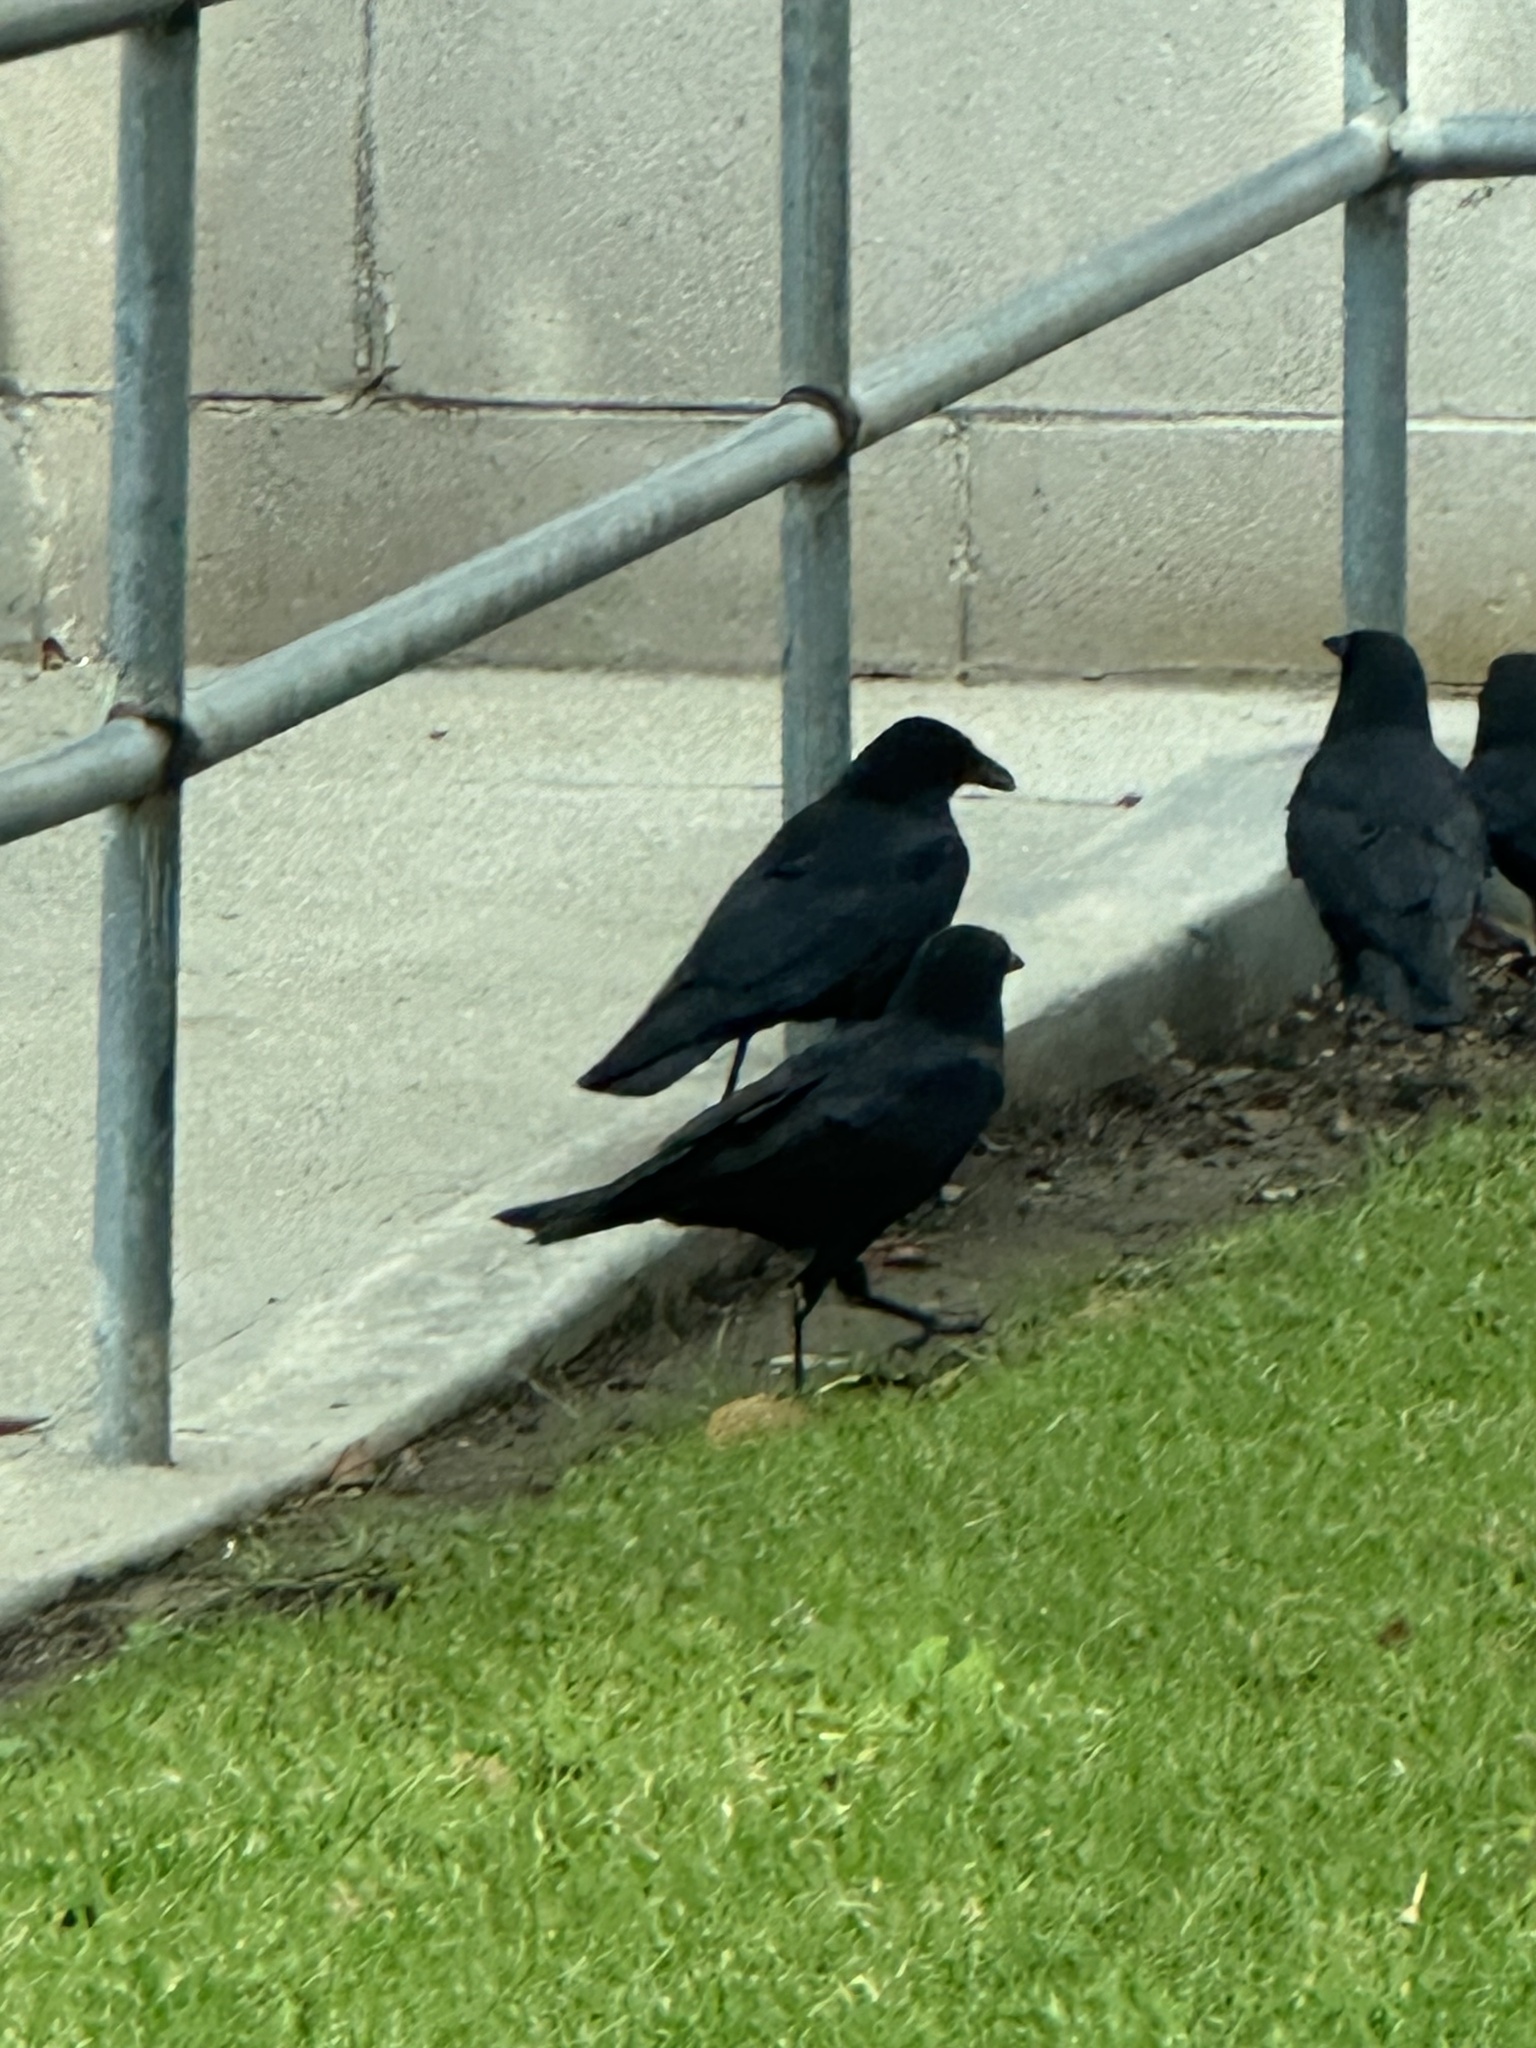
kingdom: Animalia
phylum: Chordata
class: Aves
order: Passeriformes
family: Corvidae
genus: Corvus
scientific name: Corvus brachyrhynchos
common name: American crow
